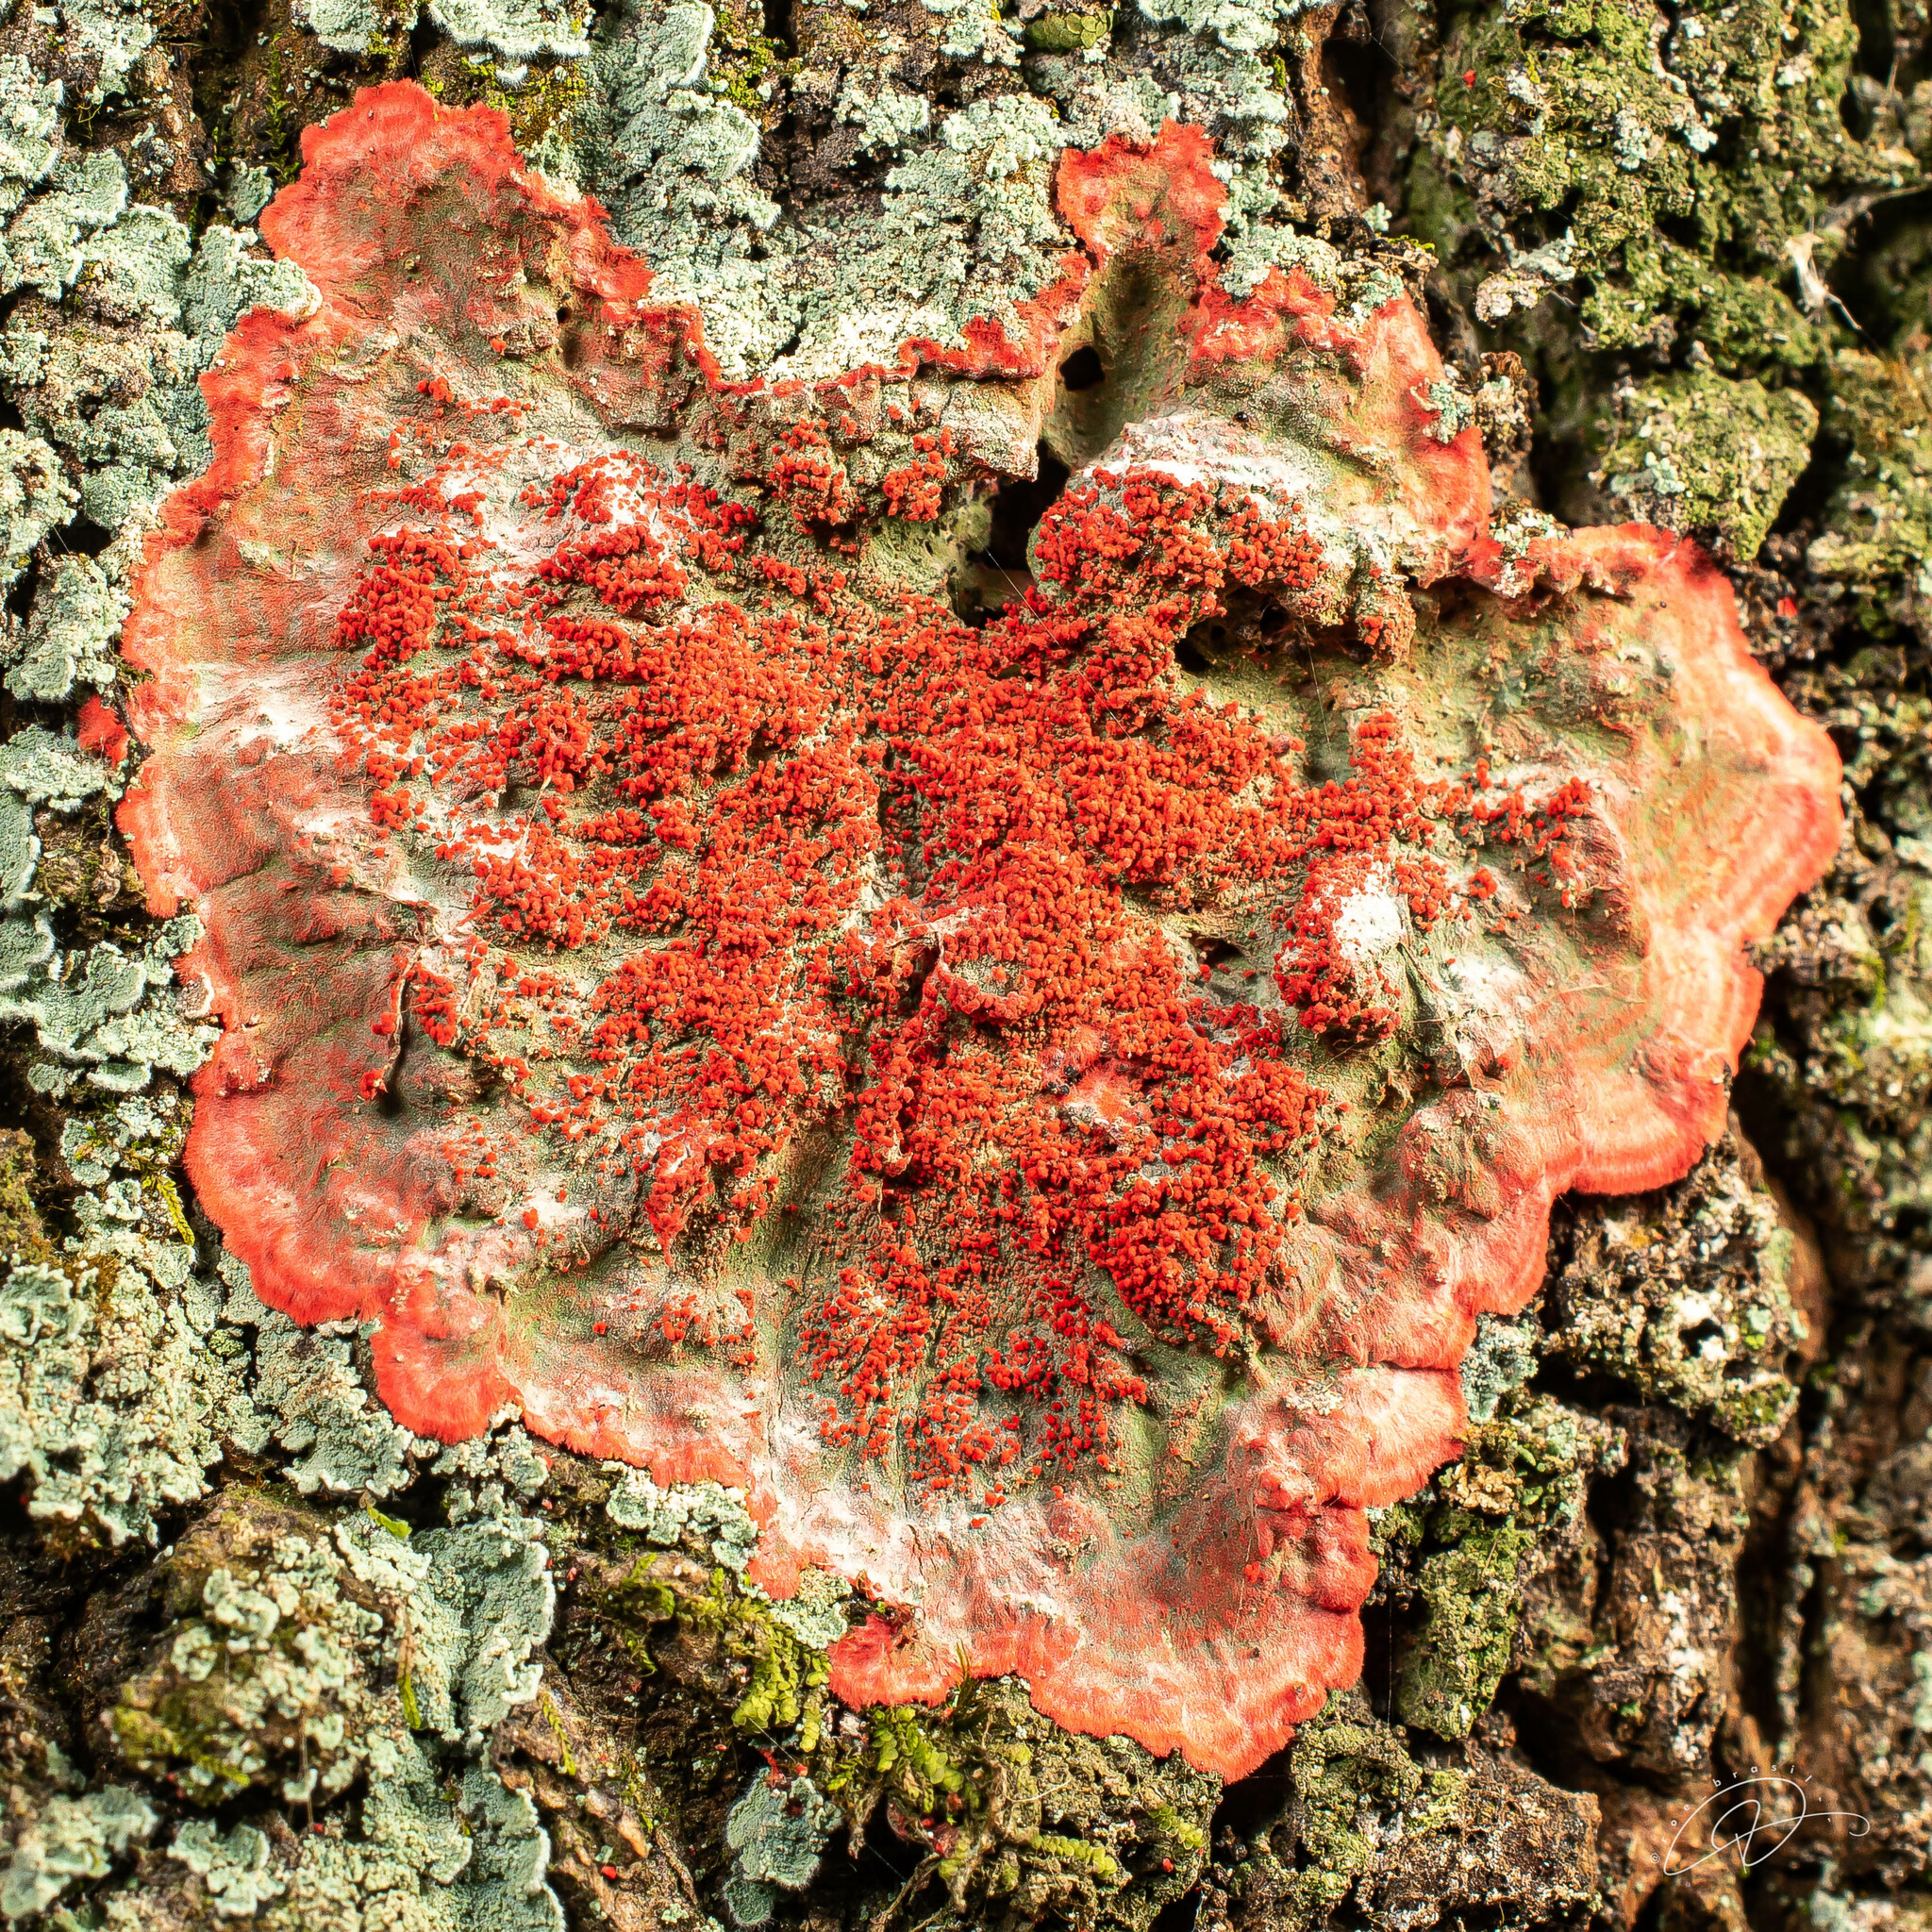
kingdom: Fungi
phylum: Ascomycota
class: Arthoniomycetes
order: Arthoniales
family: Arthoniaceae
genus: Herpothallon
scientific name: Herpothallon rubrocinctum
